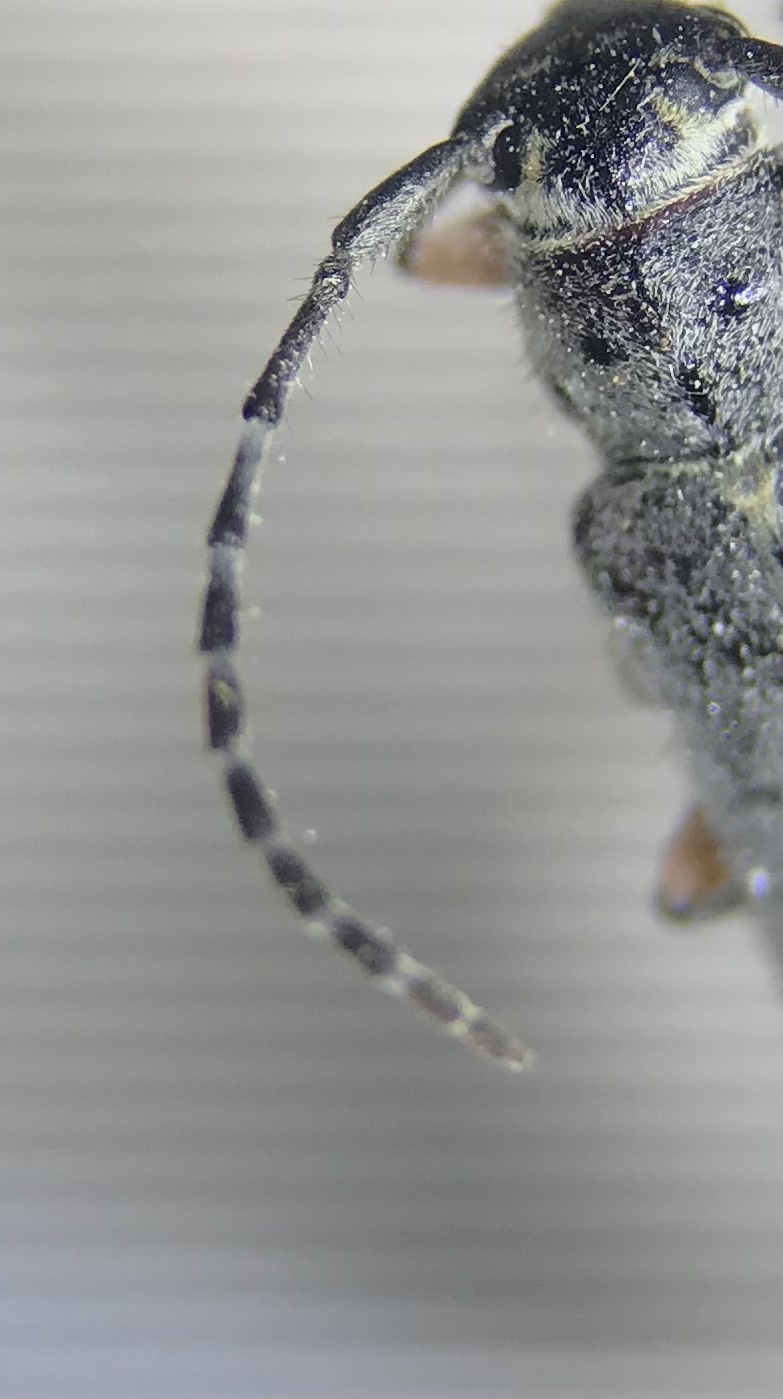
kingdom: Animalia
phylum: Arthropoda
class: Insecta
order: Coleoptera
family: Cerambycidae
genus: Mecas
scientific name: Mecas pergrata
